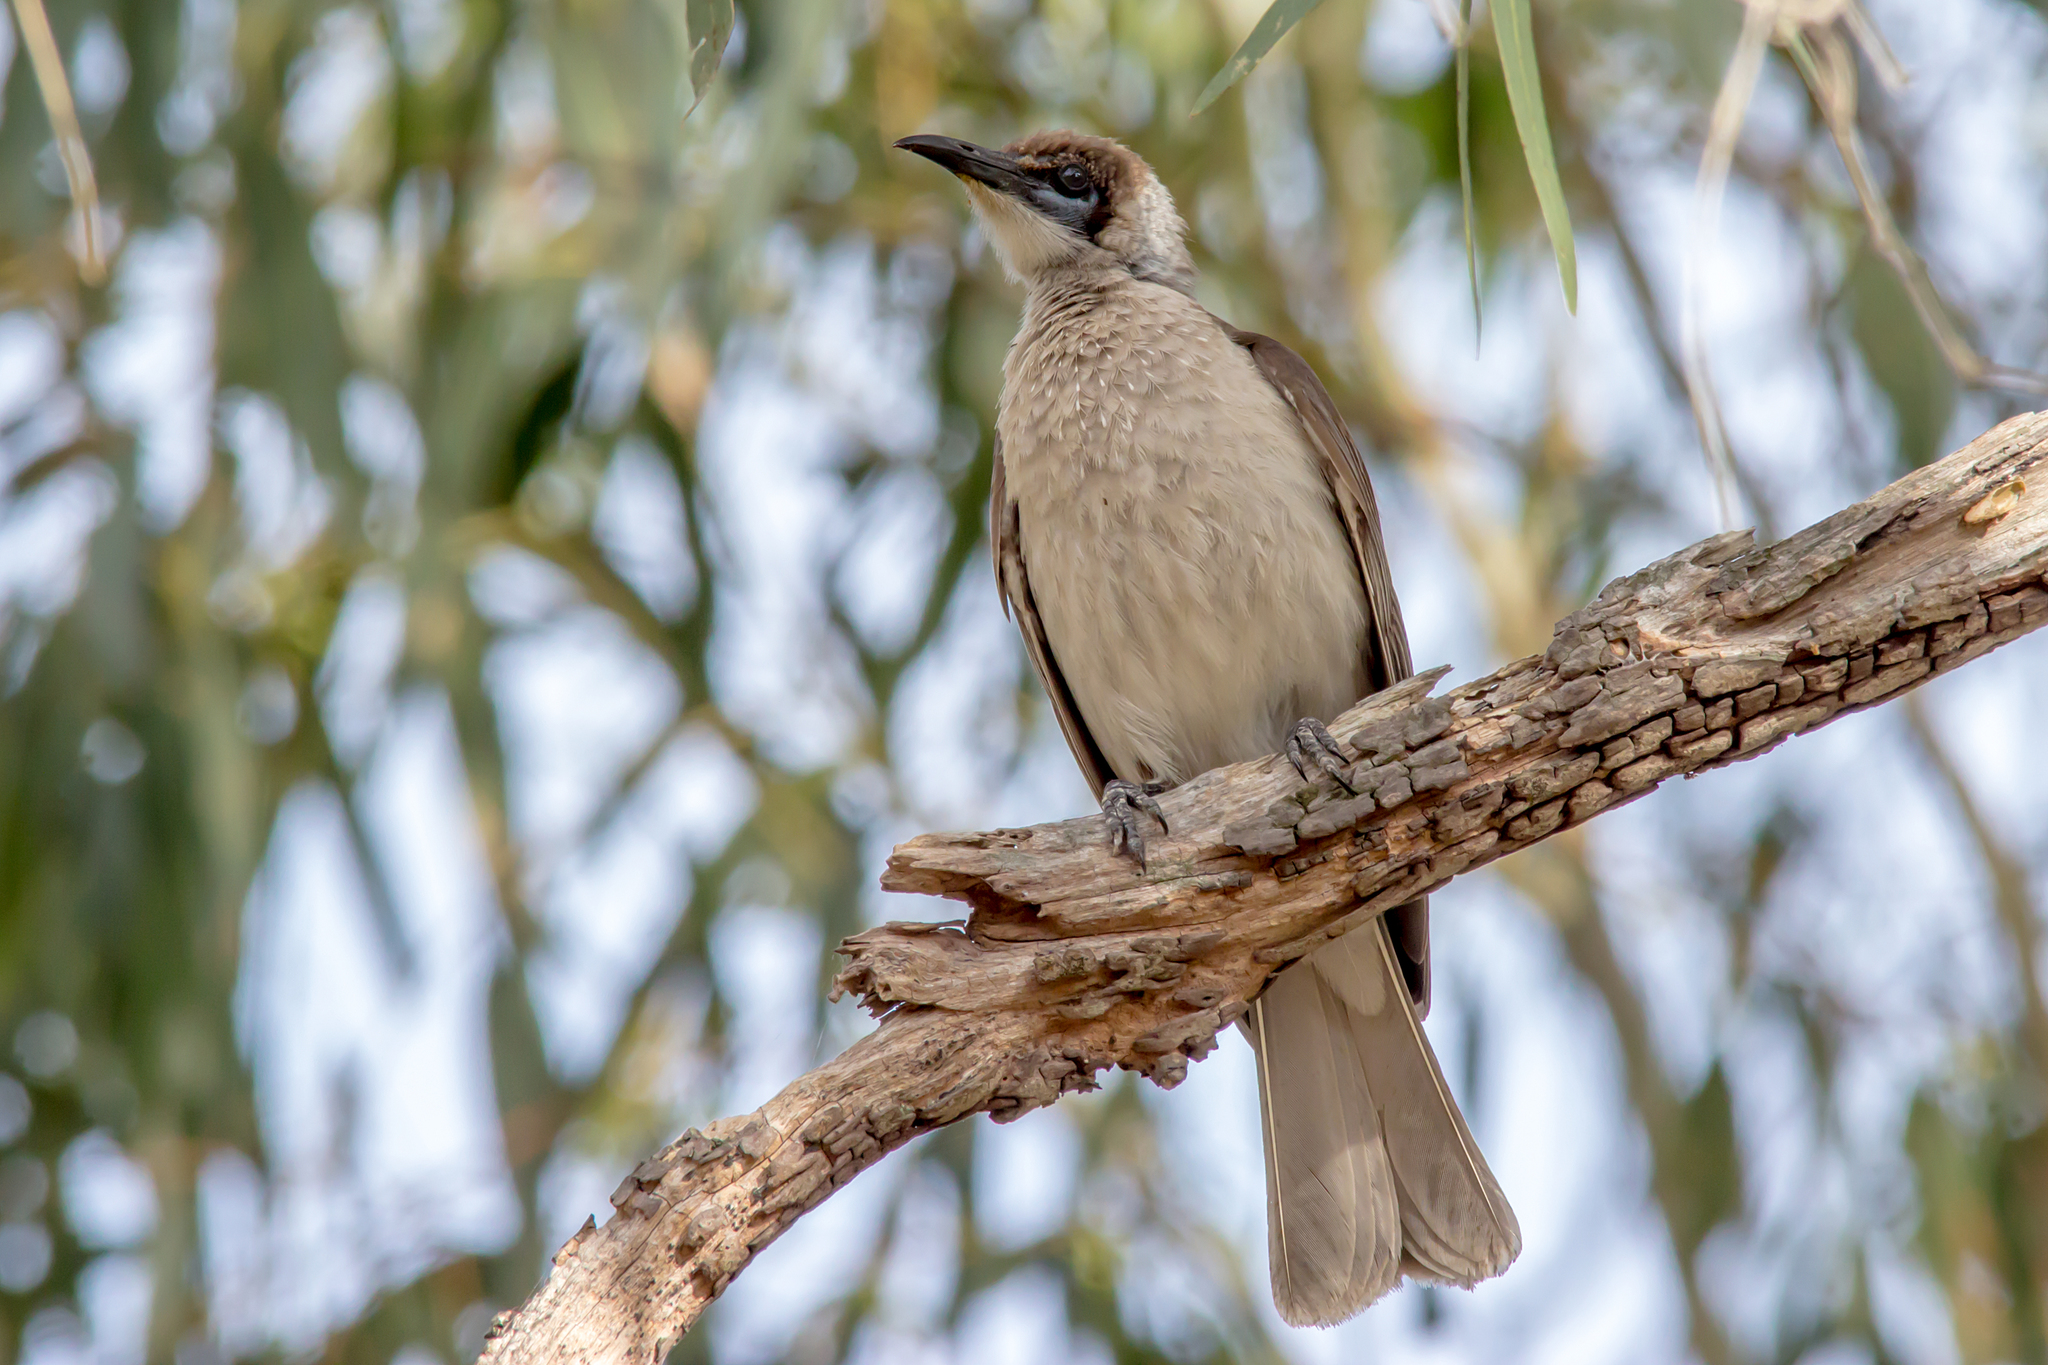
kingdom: Animalia
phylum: Chordata
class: Aves
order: Passeriformes
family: Meliphagidae
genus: Philemon
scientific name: Philemon citreogularis
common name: Little friarbird
